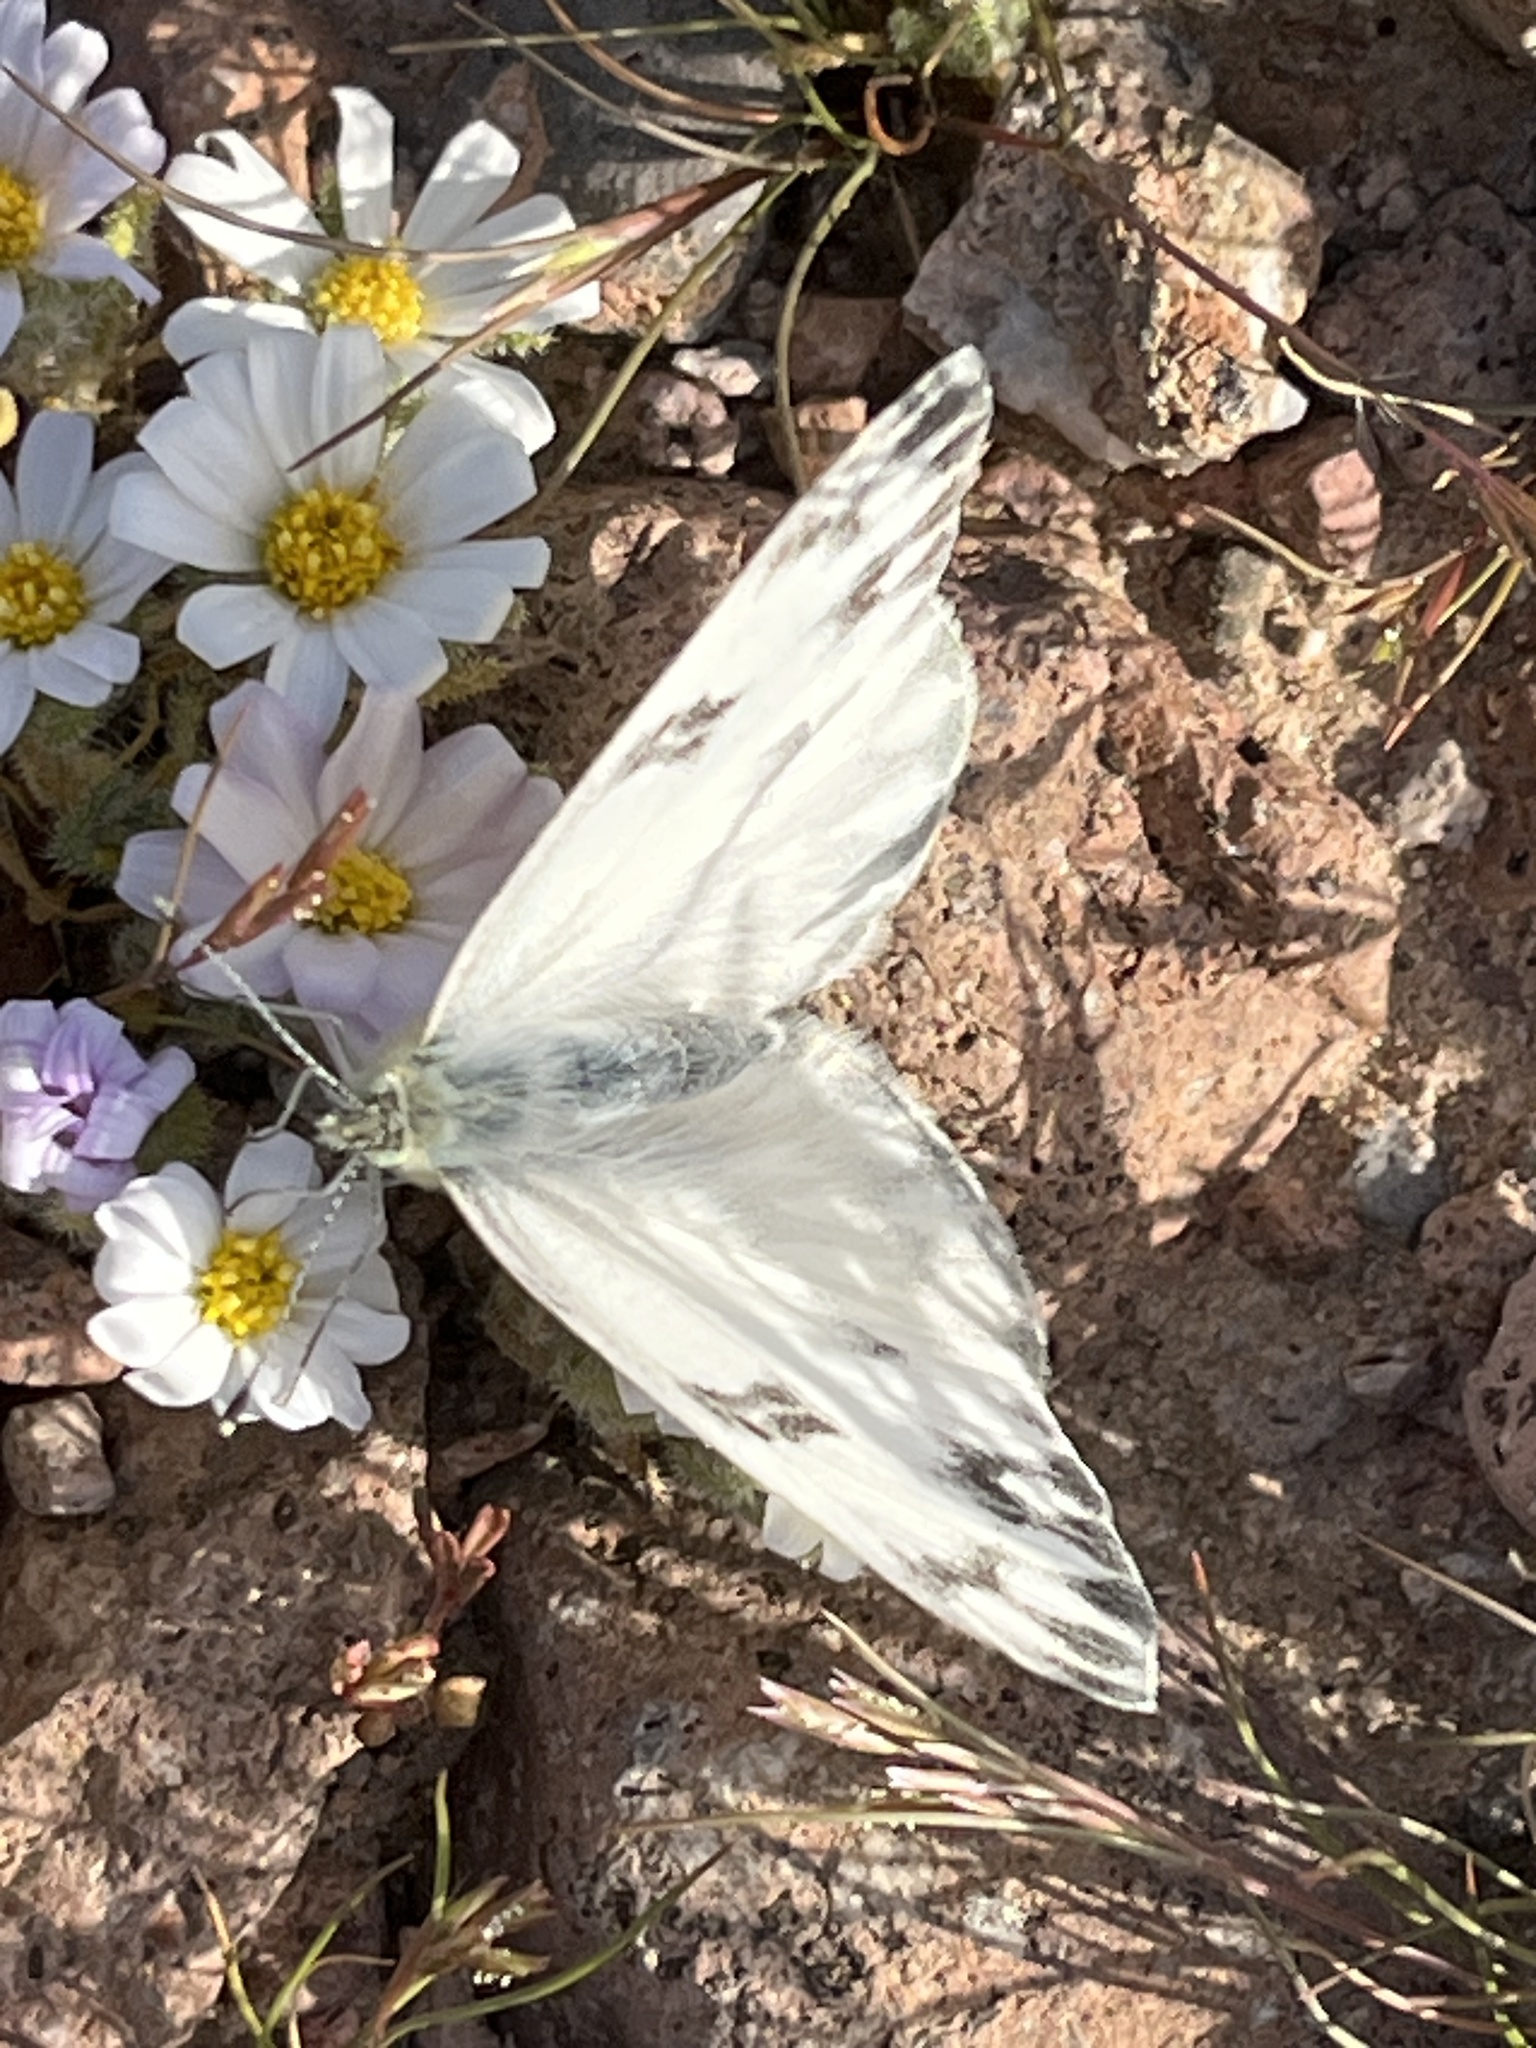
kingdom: Animalia
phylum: Arthropoda
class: Insecta
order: Lepidoptera
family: Pieridae
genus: Pontia
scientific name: Pontia protodice
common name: Checkered white
